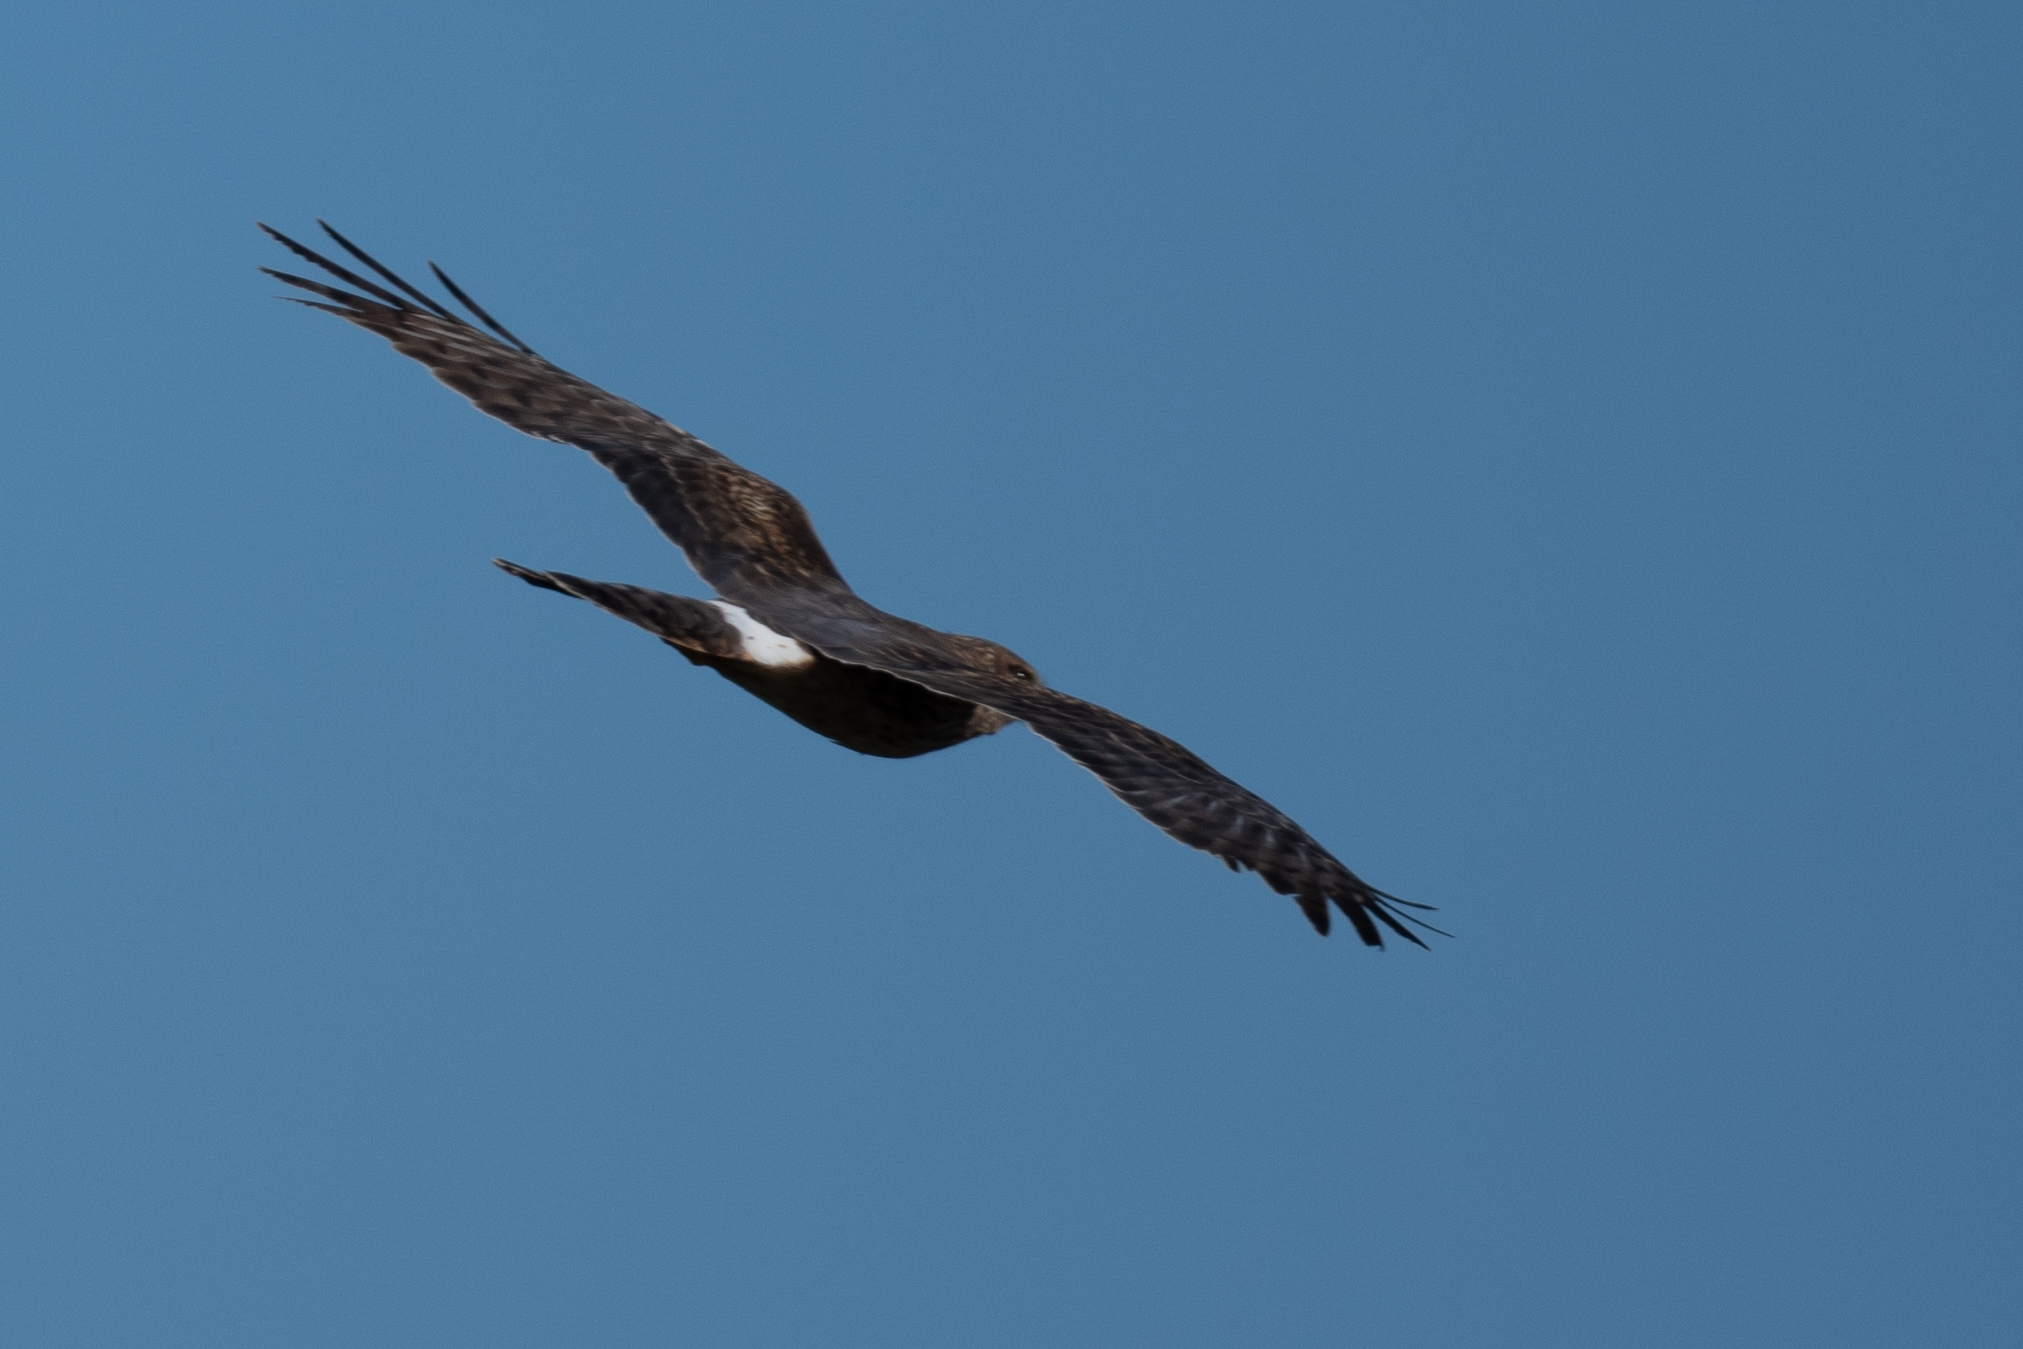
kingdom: Animalia
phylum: Chordata
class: Aves
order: Accipitriformes
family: Accipitridae
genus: Circus
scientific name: Circus cyaneus
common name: Hen harrier
